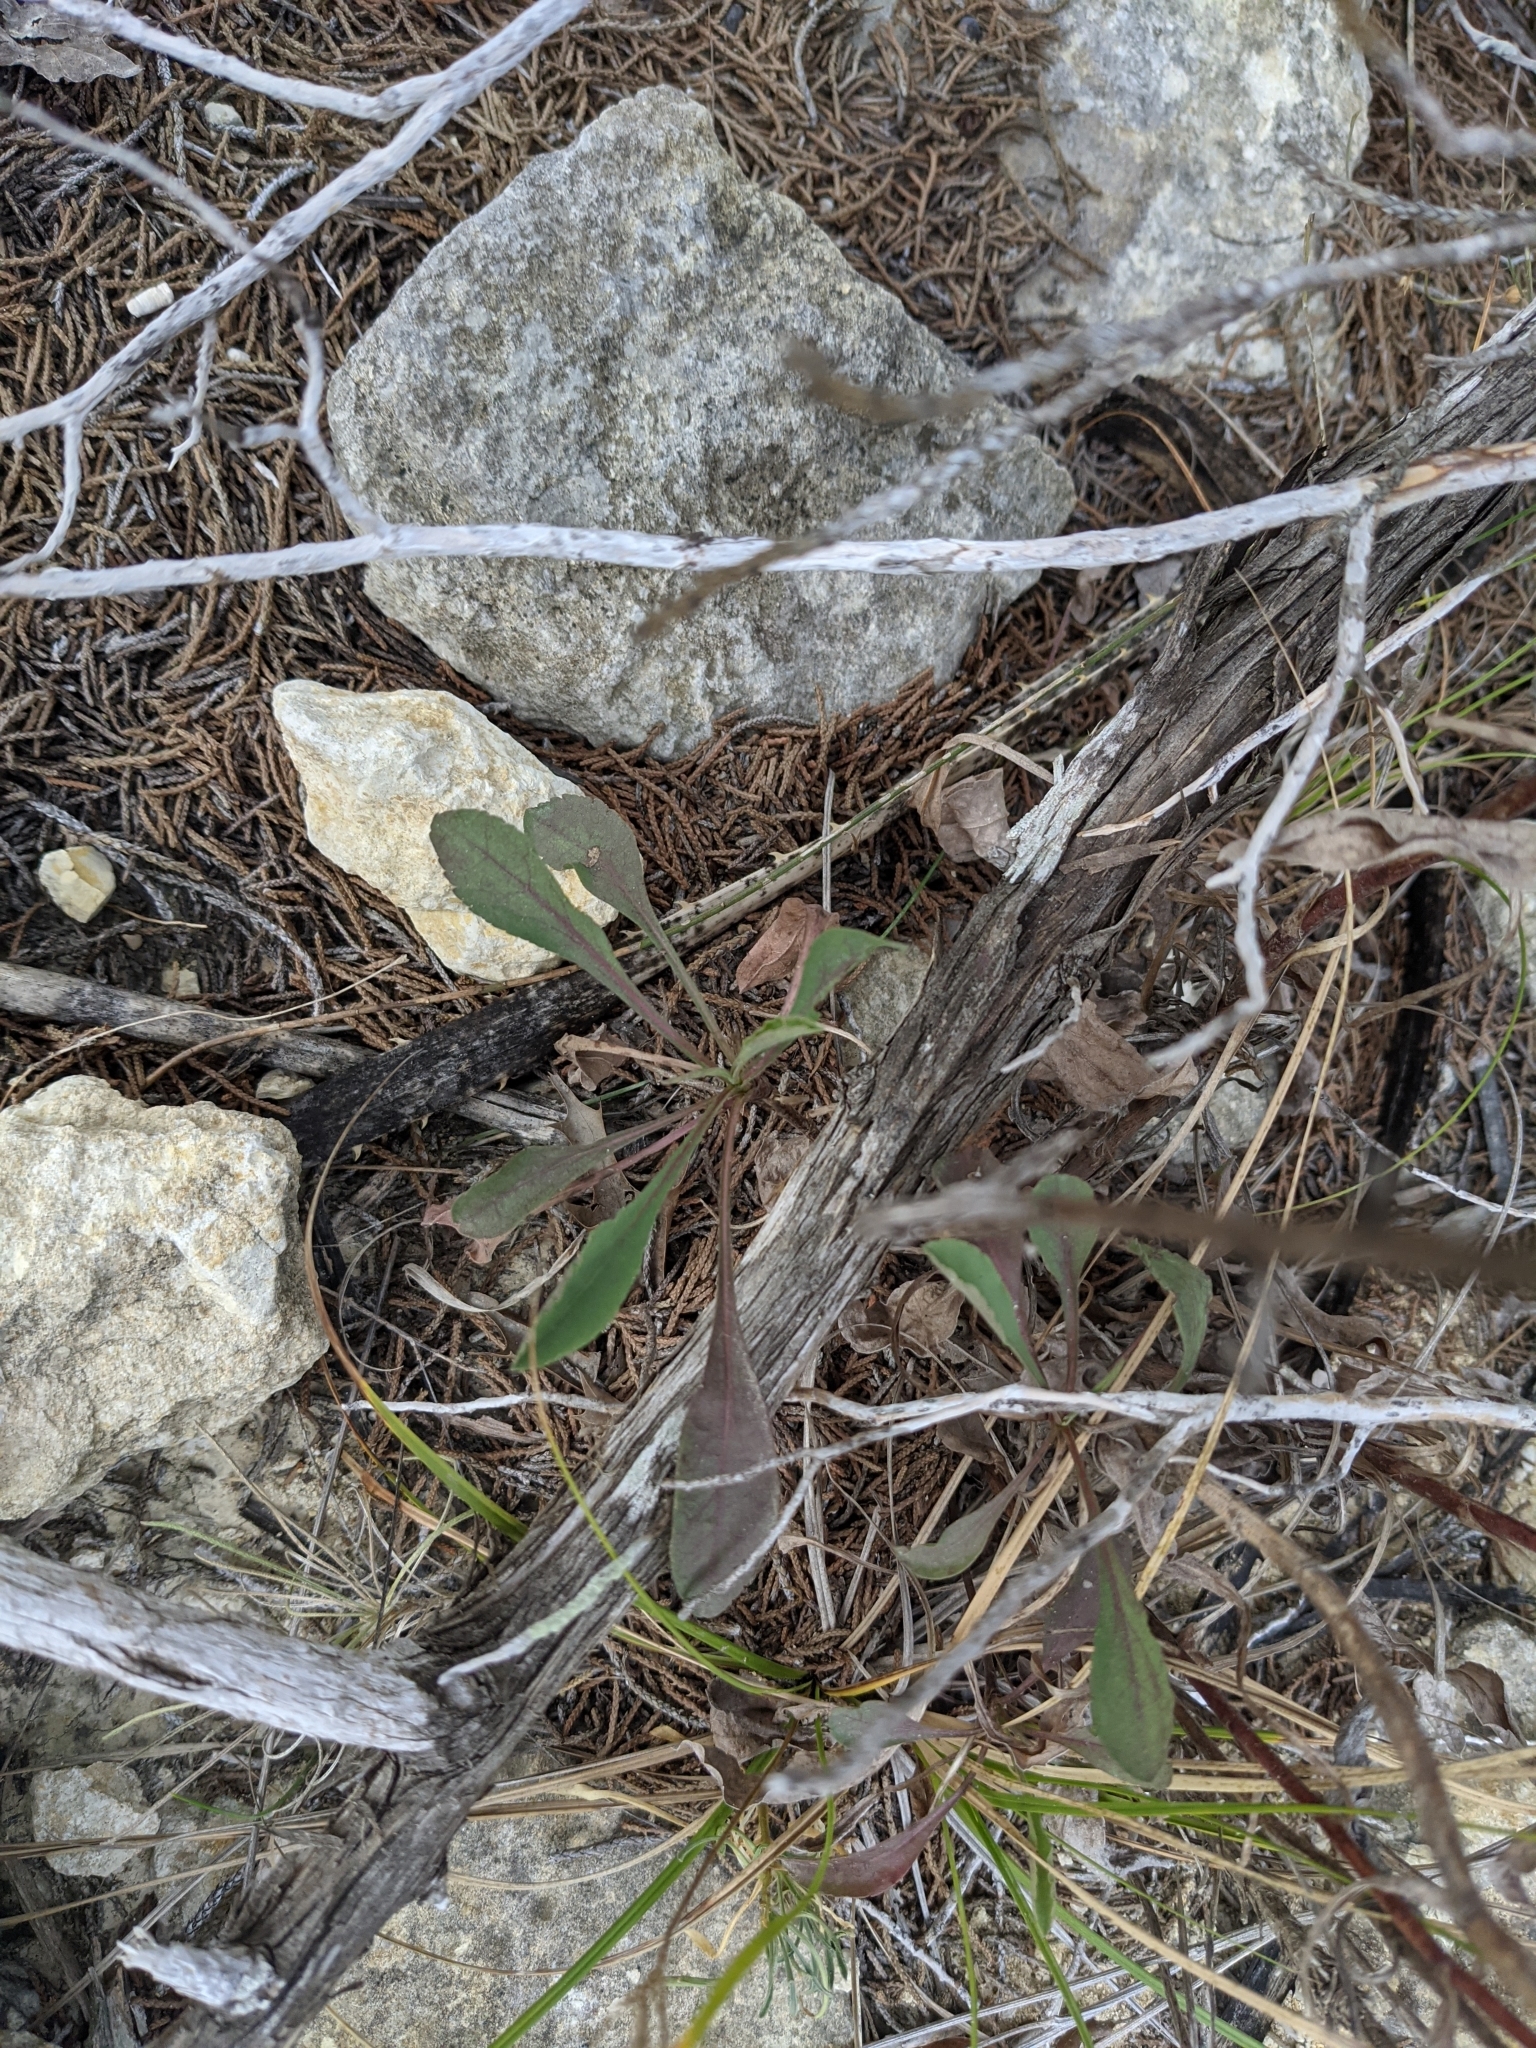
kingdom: Plantae
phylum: Tracheophyta
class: Magnoliopsida
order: Asterales
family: Asteraceae
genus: Solidago
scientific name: Solidago nemoralis
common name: Grey goldenrod
